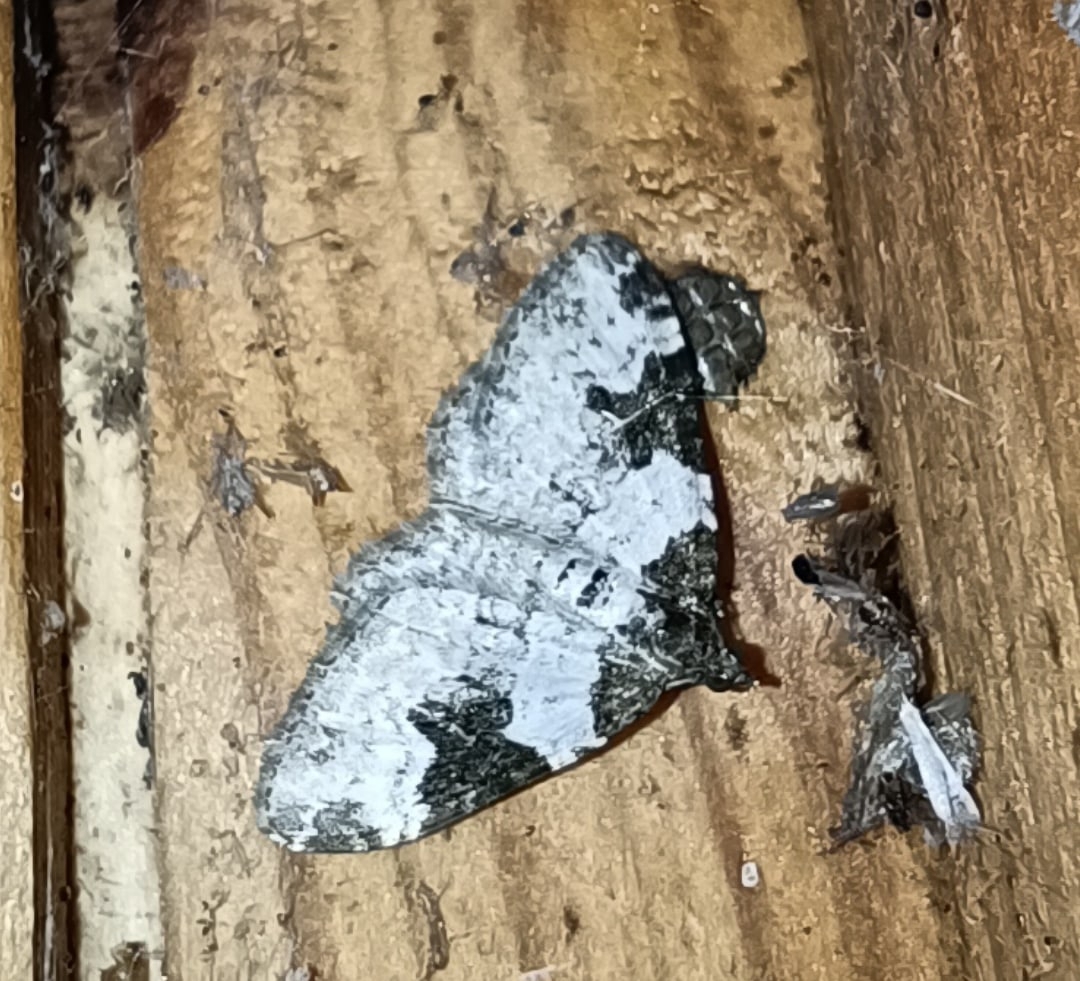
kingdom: Animalia
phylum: Arthropoda
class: Insecta
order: Lepidoptera
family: Geometridae
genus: Xanthorhoe
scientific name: Xanthorhoe fluctuata
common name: Garden carpet
